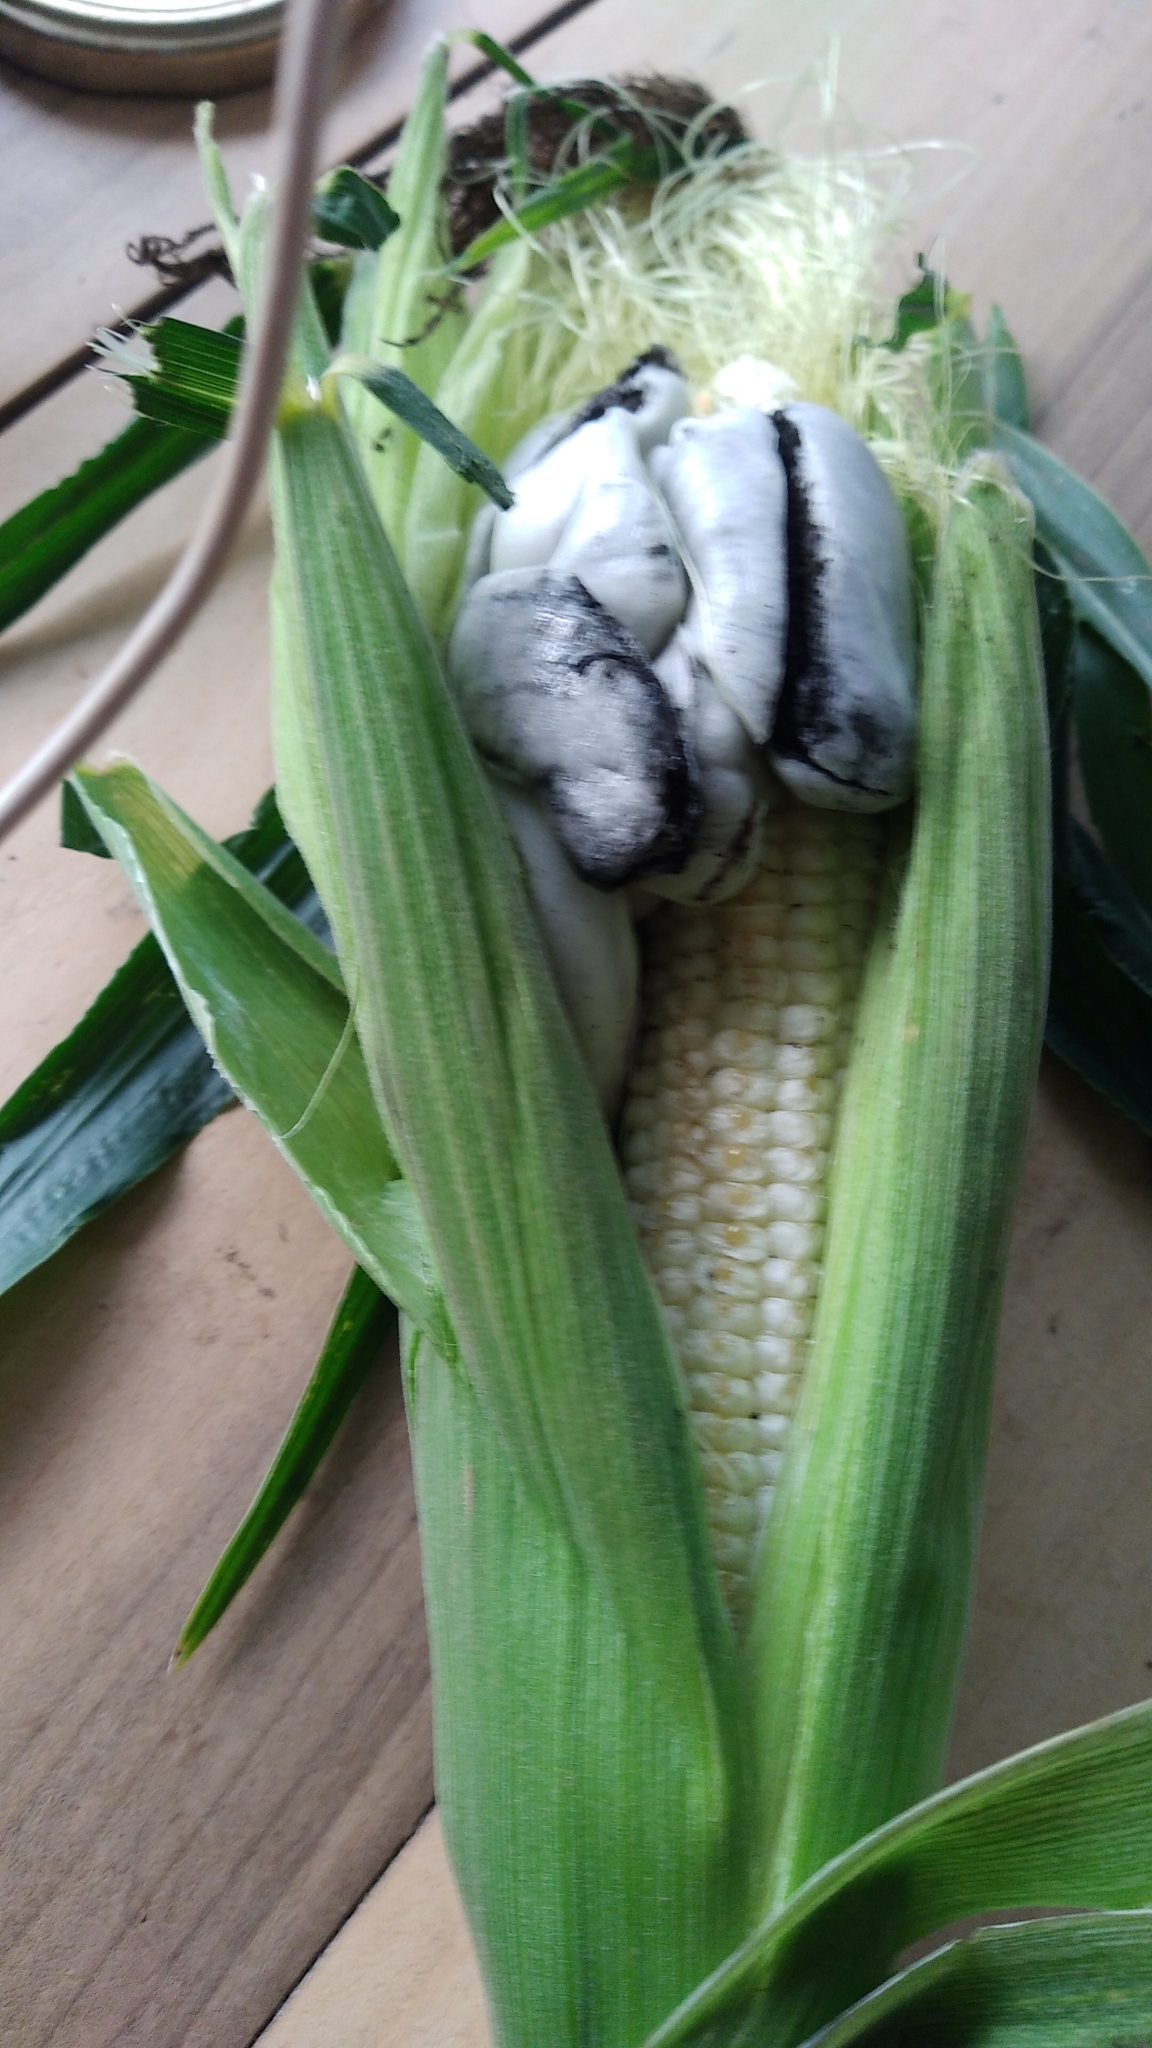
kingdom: Fungi
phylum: Basidiomycota
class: Ustilaginomycetes
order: Ustilaginales
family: Ustilaginaceae
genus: Mycosarcoma
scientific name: Mycosarcoma maydis
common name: Corn smut
